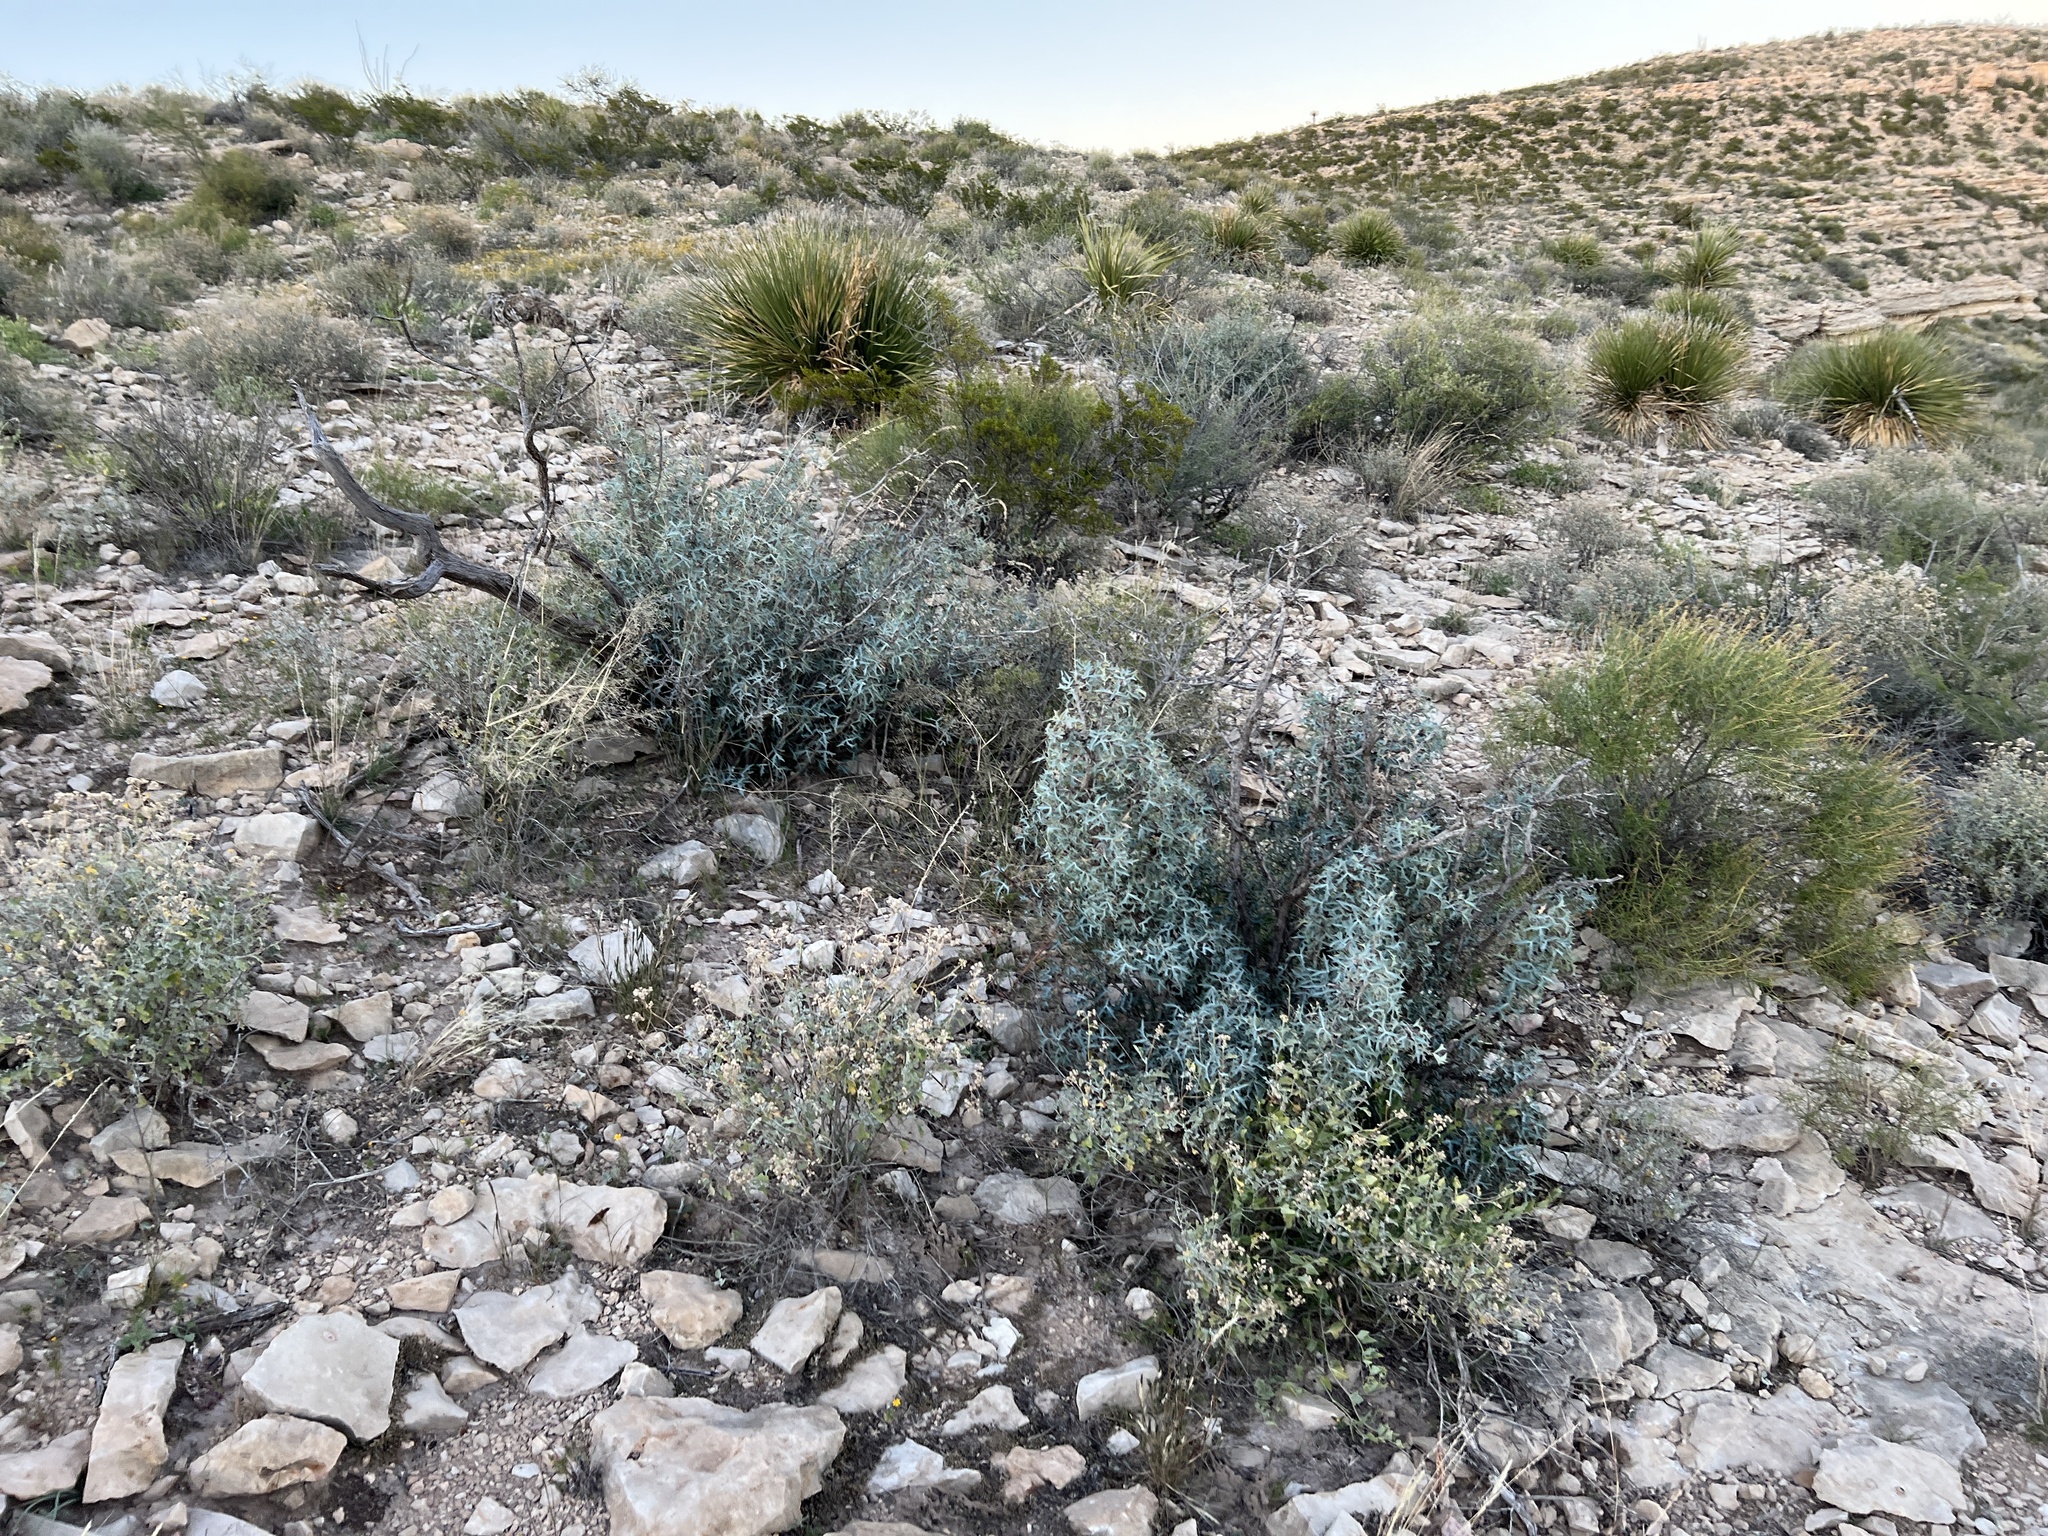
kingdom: Plantae
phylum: Tracheophyta
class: Magnoliopsida
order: Ranunculales
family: Berberidaceae
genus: Alloberberis
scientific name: Alloberberis trifoliolata
